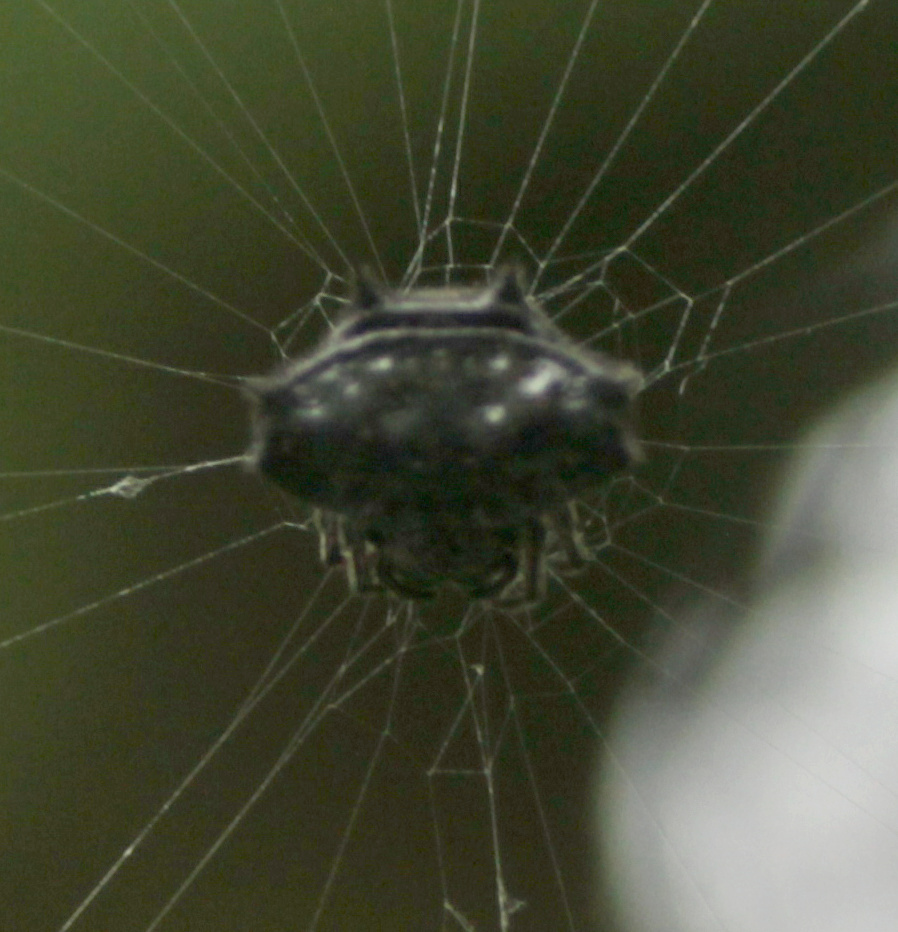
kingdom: Animalia
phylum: Arthropoda
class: Arachnida
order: Araneae
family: Araneidae
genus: Gasteracantha
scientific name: Gasteracantha cancriformis
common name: Orb weavers
